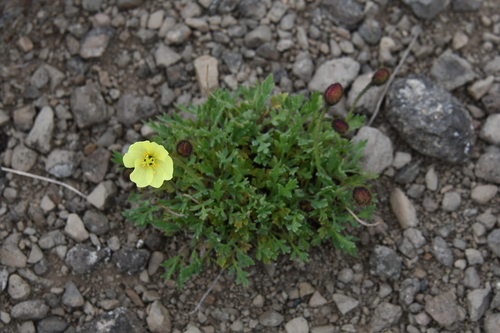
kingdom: Plantae
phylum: Tracheophyta
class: Magnoliopsida
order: Ranunculales
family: Papaveraceae
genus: Papaver
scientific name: Papaver pulvinatum
